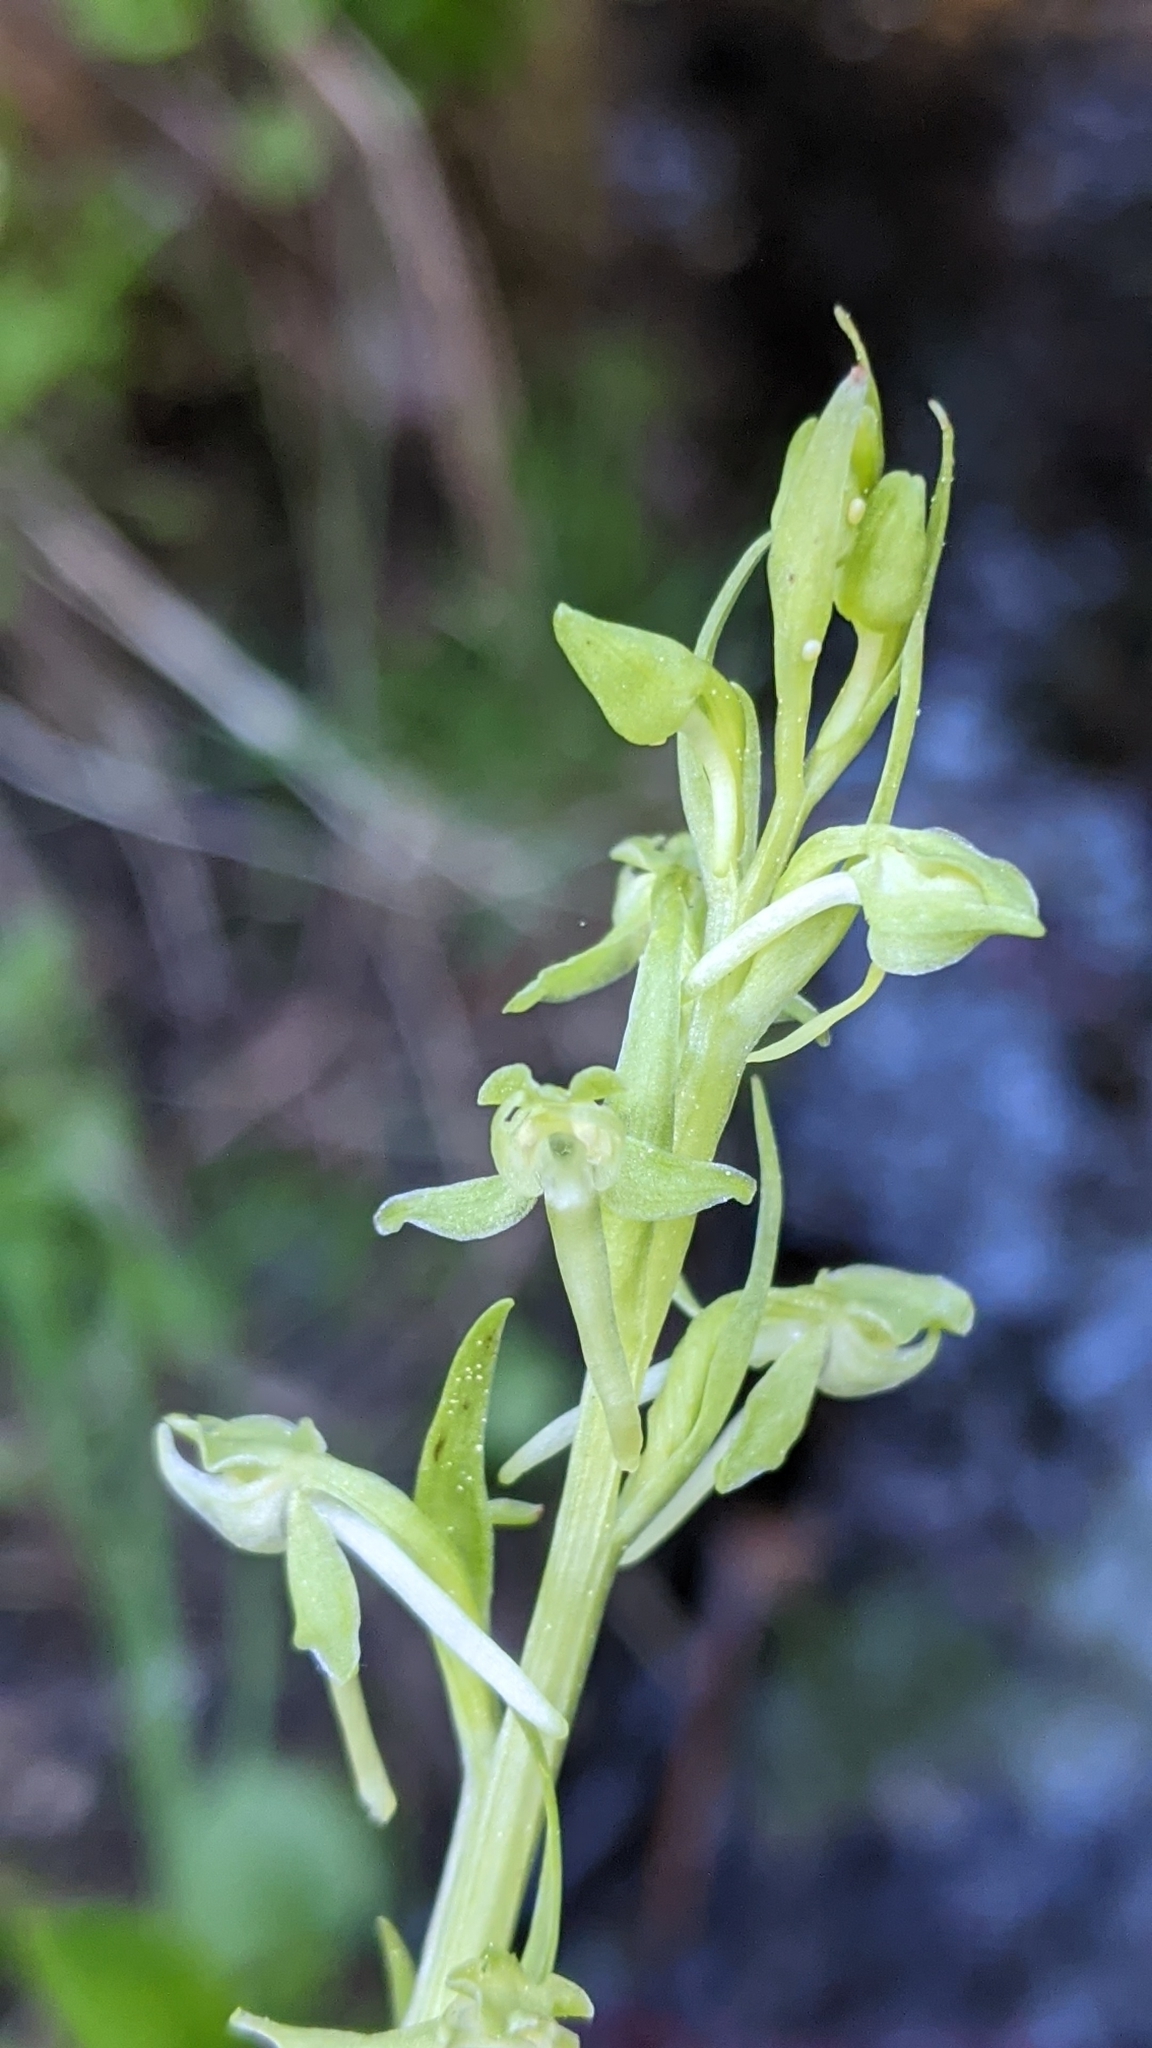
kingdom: Plantae
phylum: Tracheophyta
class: Liliopsida
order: Asparagales
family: Orchidaceae
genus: Platanthera
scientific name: Platanthera sparsiflora
